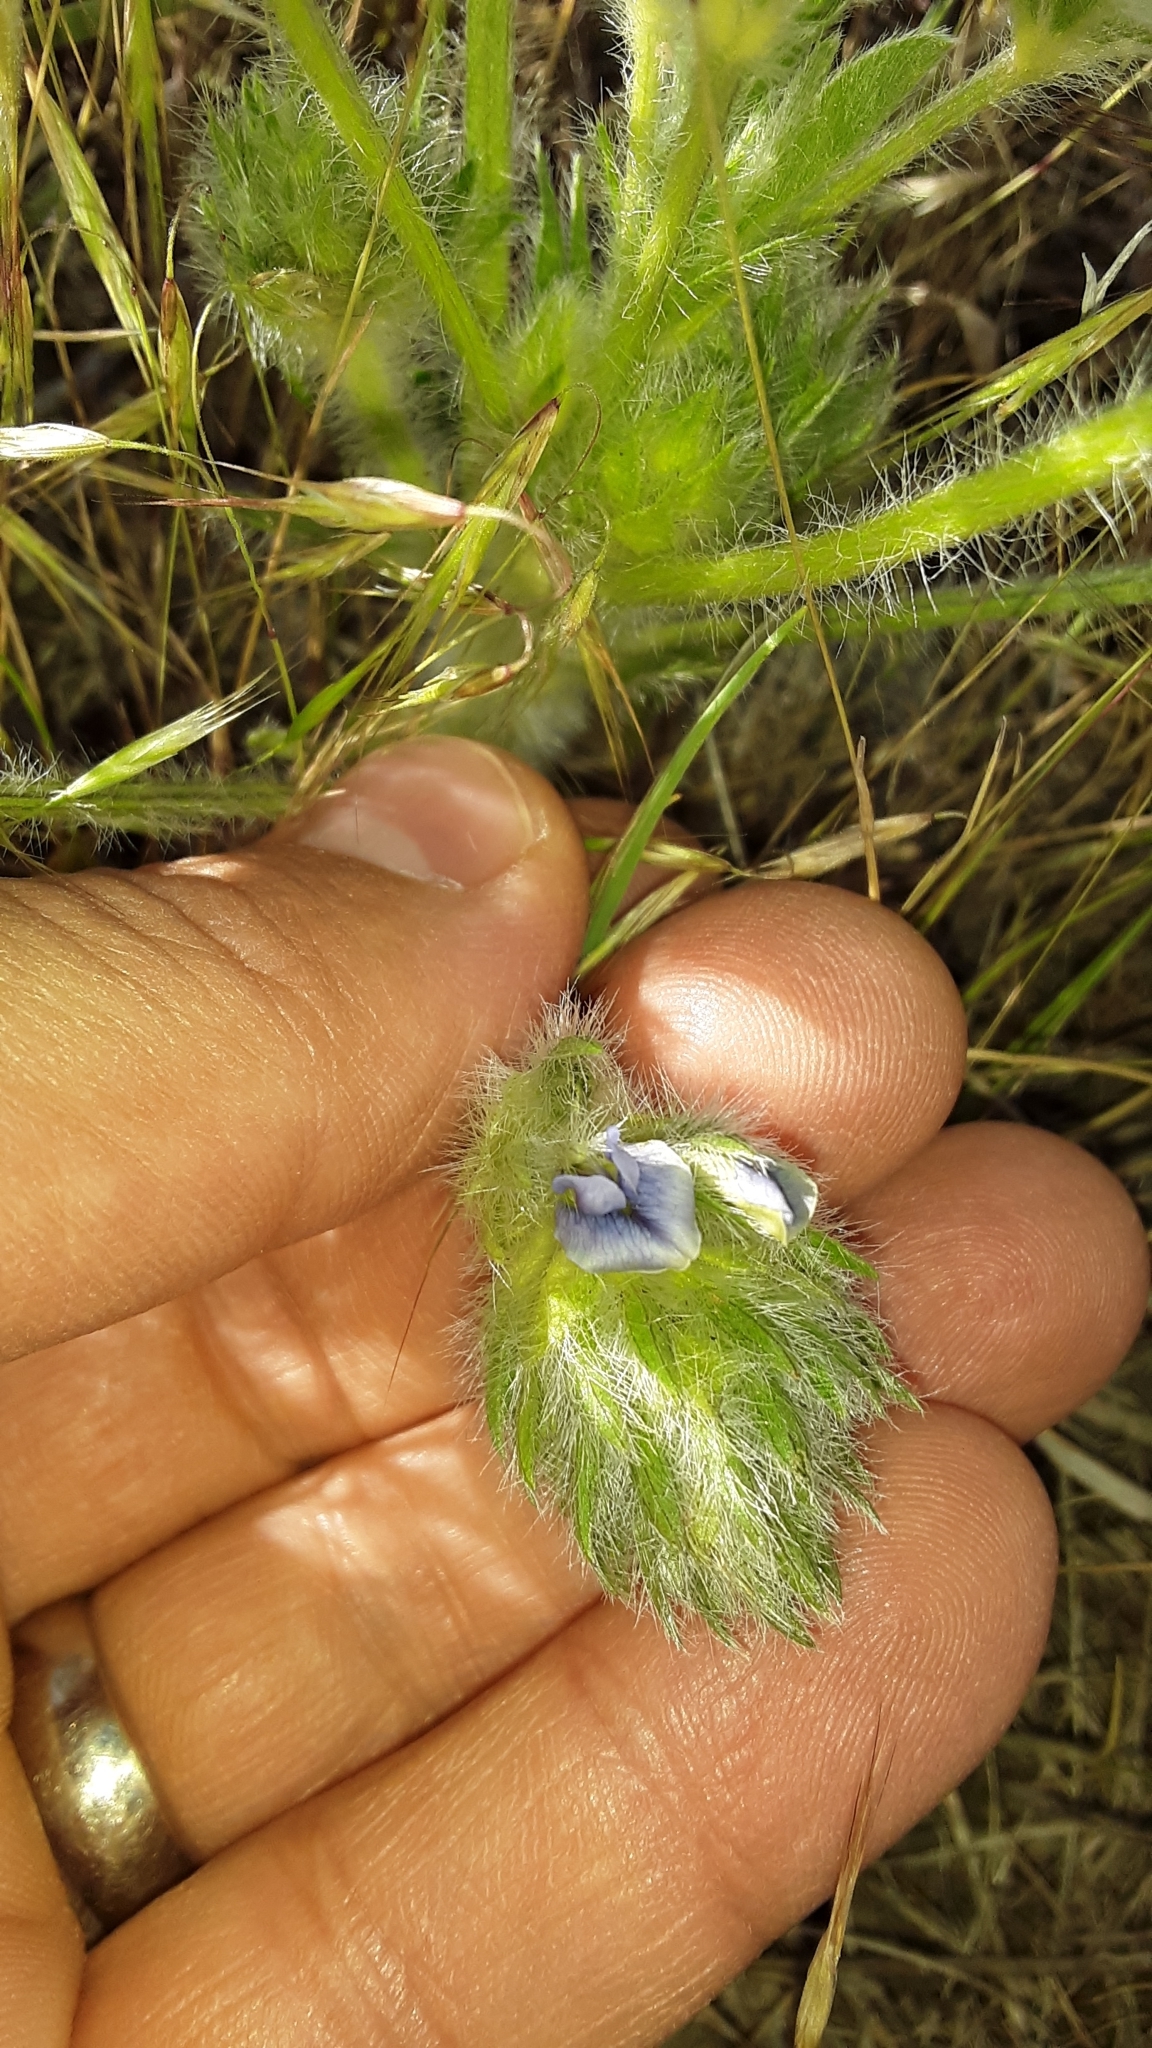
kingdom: Plantae
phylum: Tracheophyta
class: Magnoliopsida
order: Fabales
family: Fabaceae
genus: Pediomelum
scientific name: Pediomelum esculentum
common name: Indian-turnip
